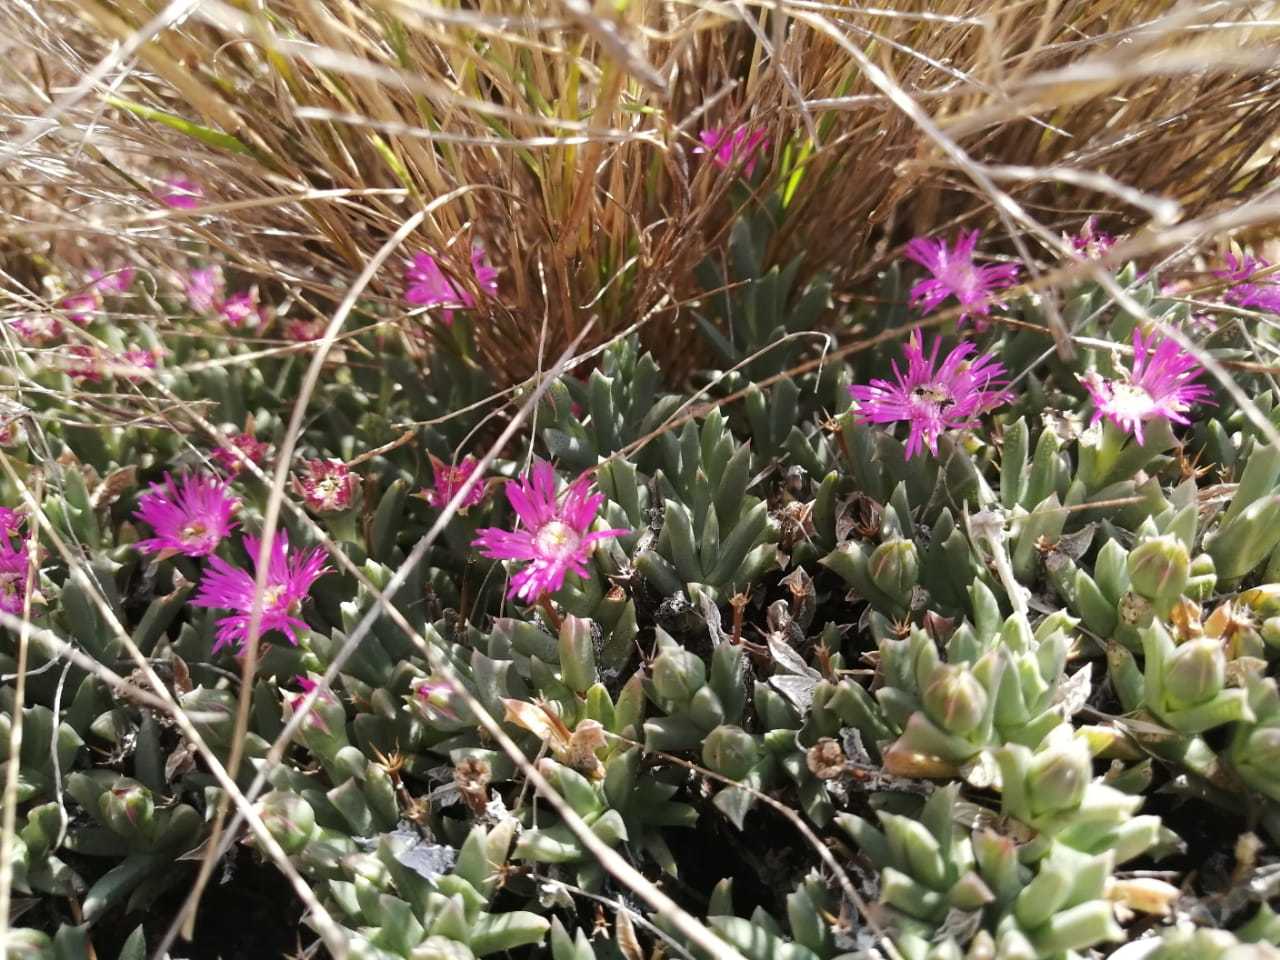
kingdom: Plantae
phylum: Tracheophyta
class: Magnoliopsida
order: Caryophyllales
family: Aizoaceae
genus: Ruschia
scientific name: Ruschia pulvinaris
